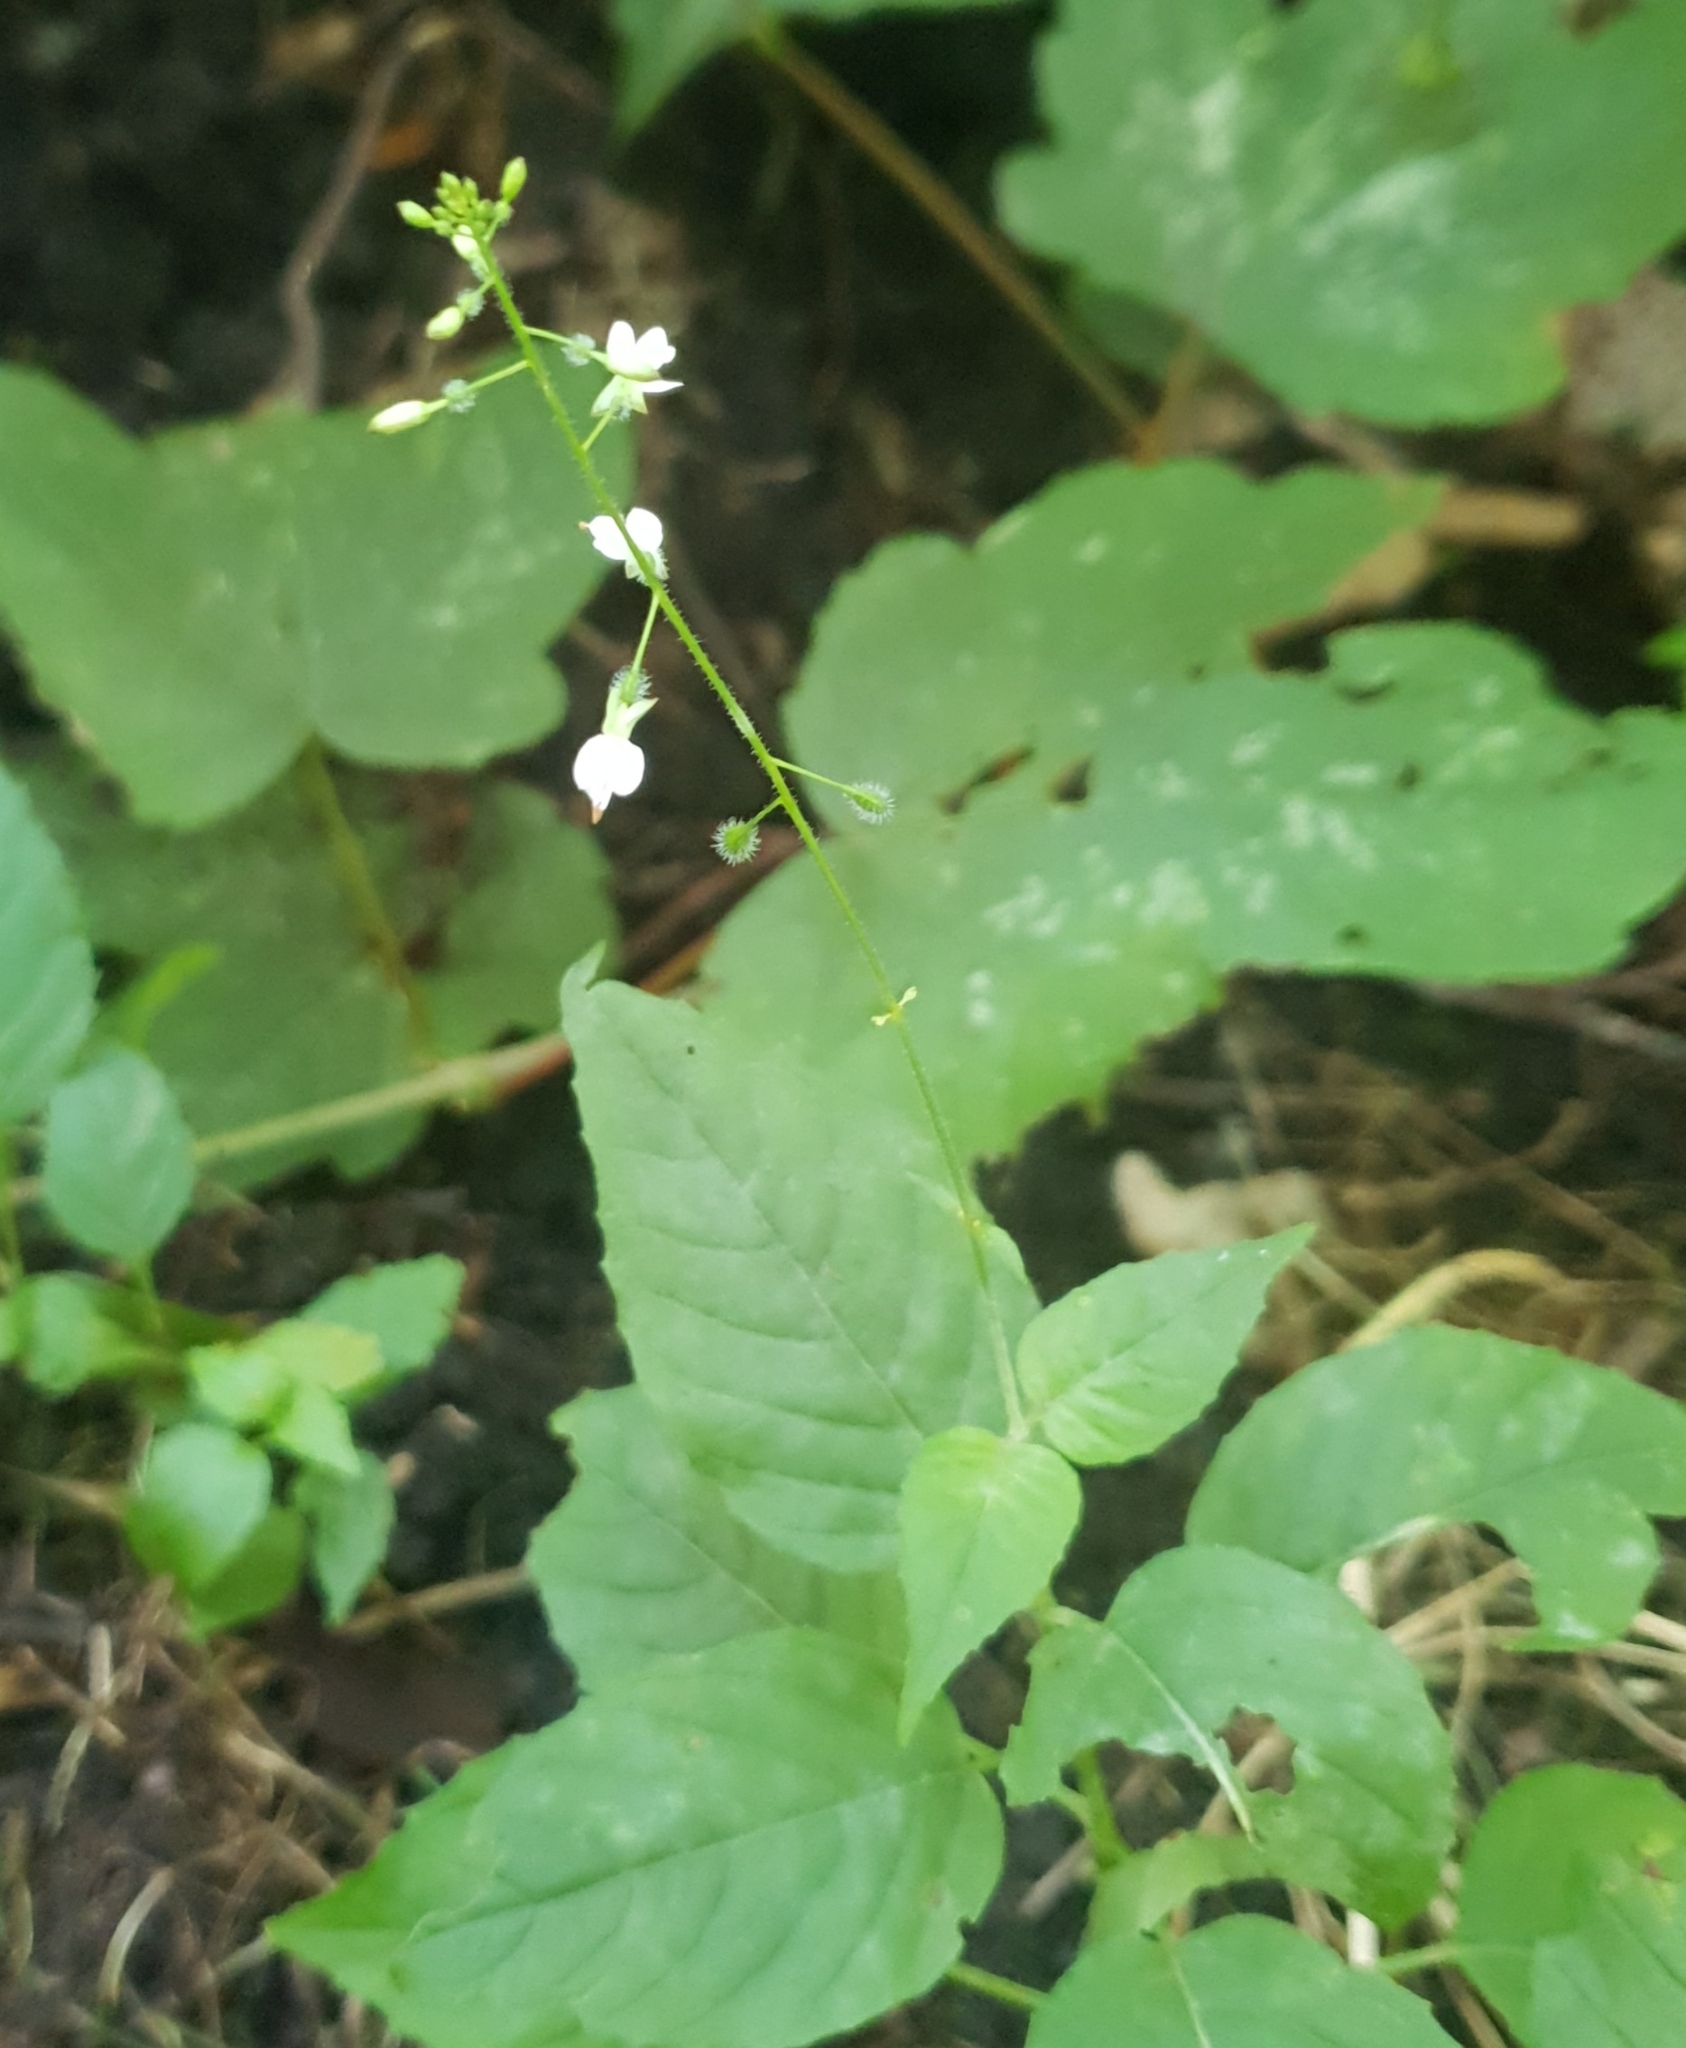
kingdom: Plantae
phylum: Tracheophyta
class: Magnoliopsida
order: Myrtales
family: Onagraceae
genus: Circaea
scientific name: Circaea lutetiana
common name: Enchanter's-nightshade
